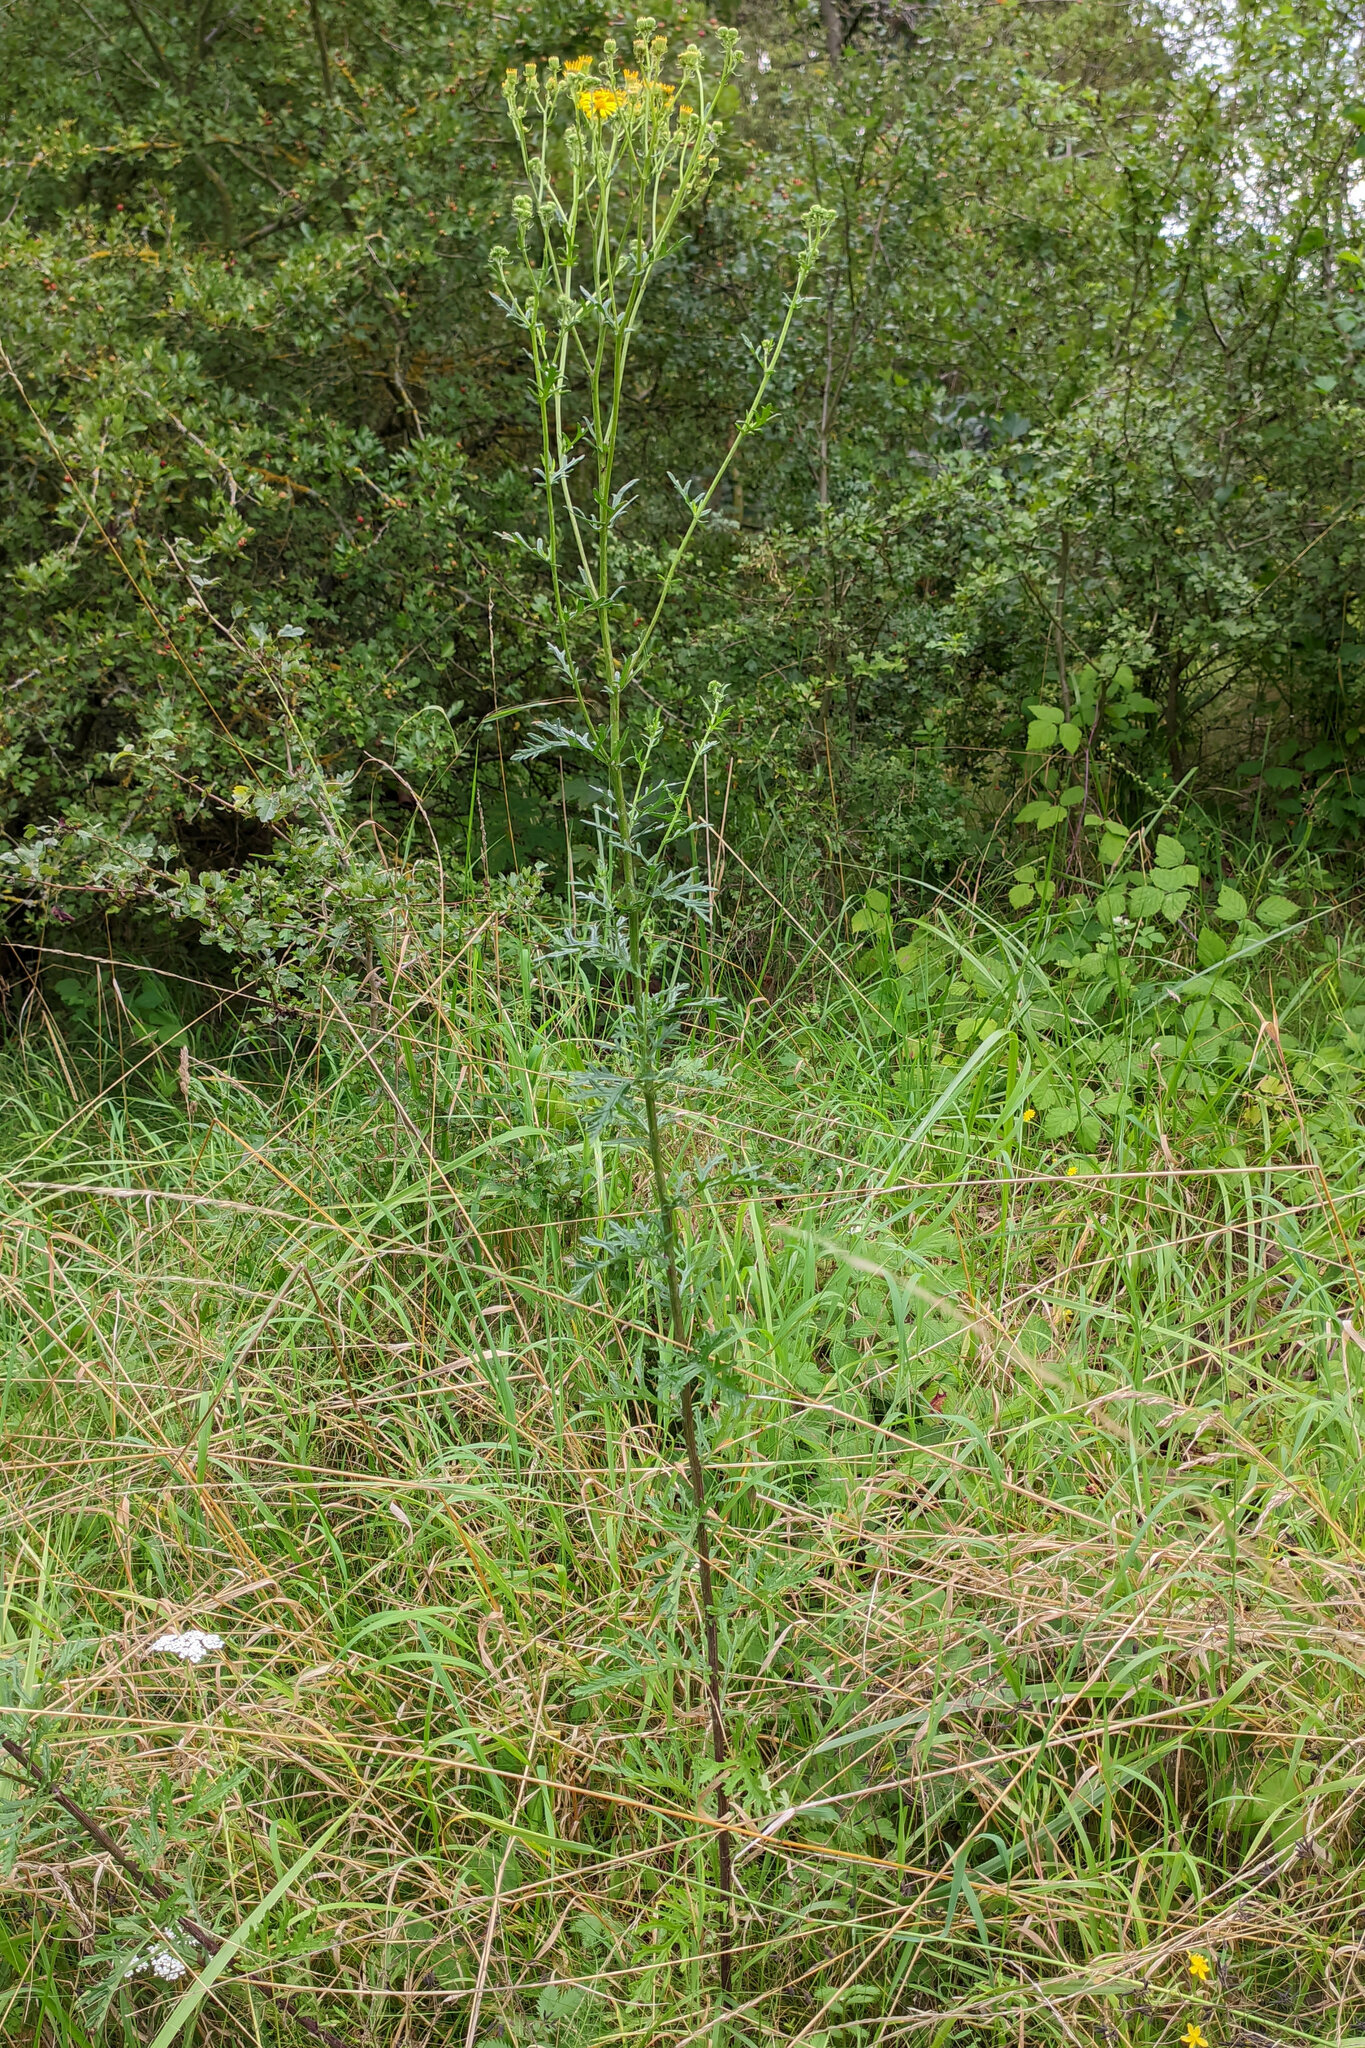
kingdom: Plantae
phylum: Tracheophyta
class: Magnoliopsida
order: Asterales
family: Asteraceae
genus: Jacobaea
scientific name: Jacobaea erucifolia
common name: Hoary ragwort
